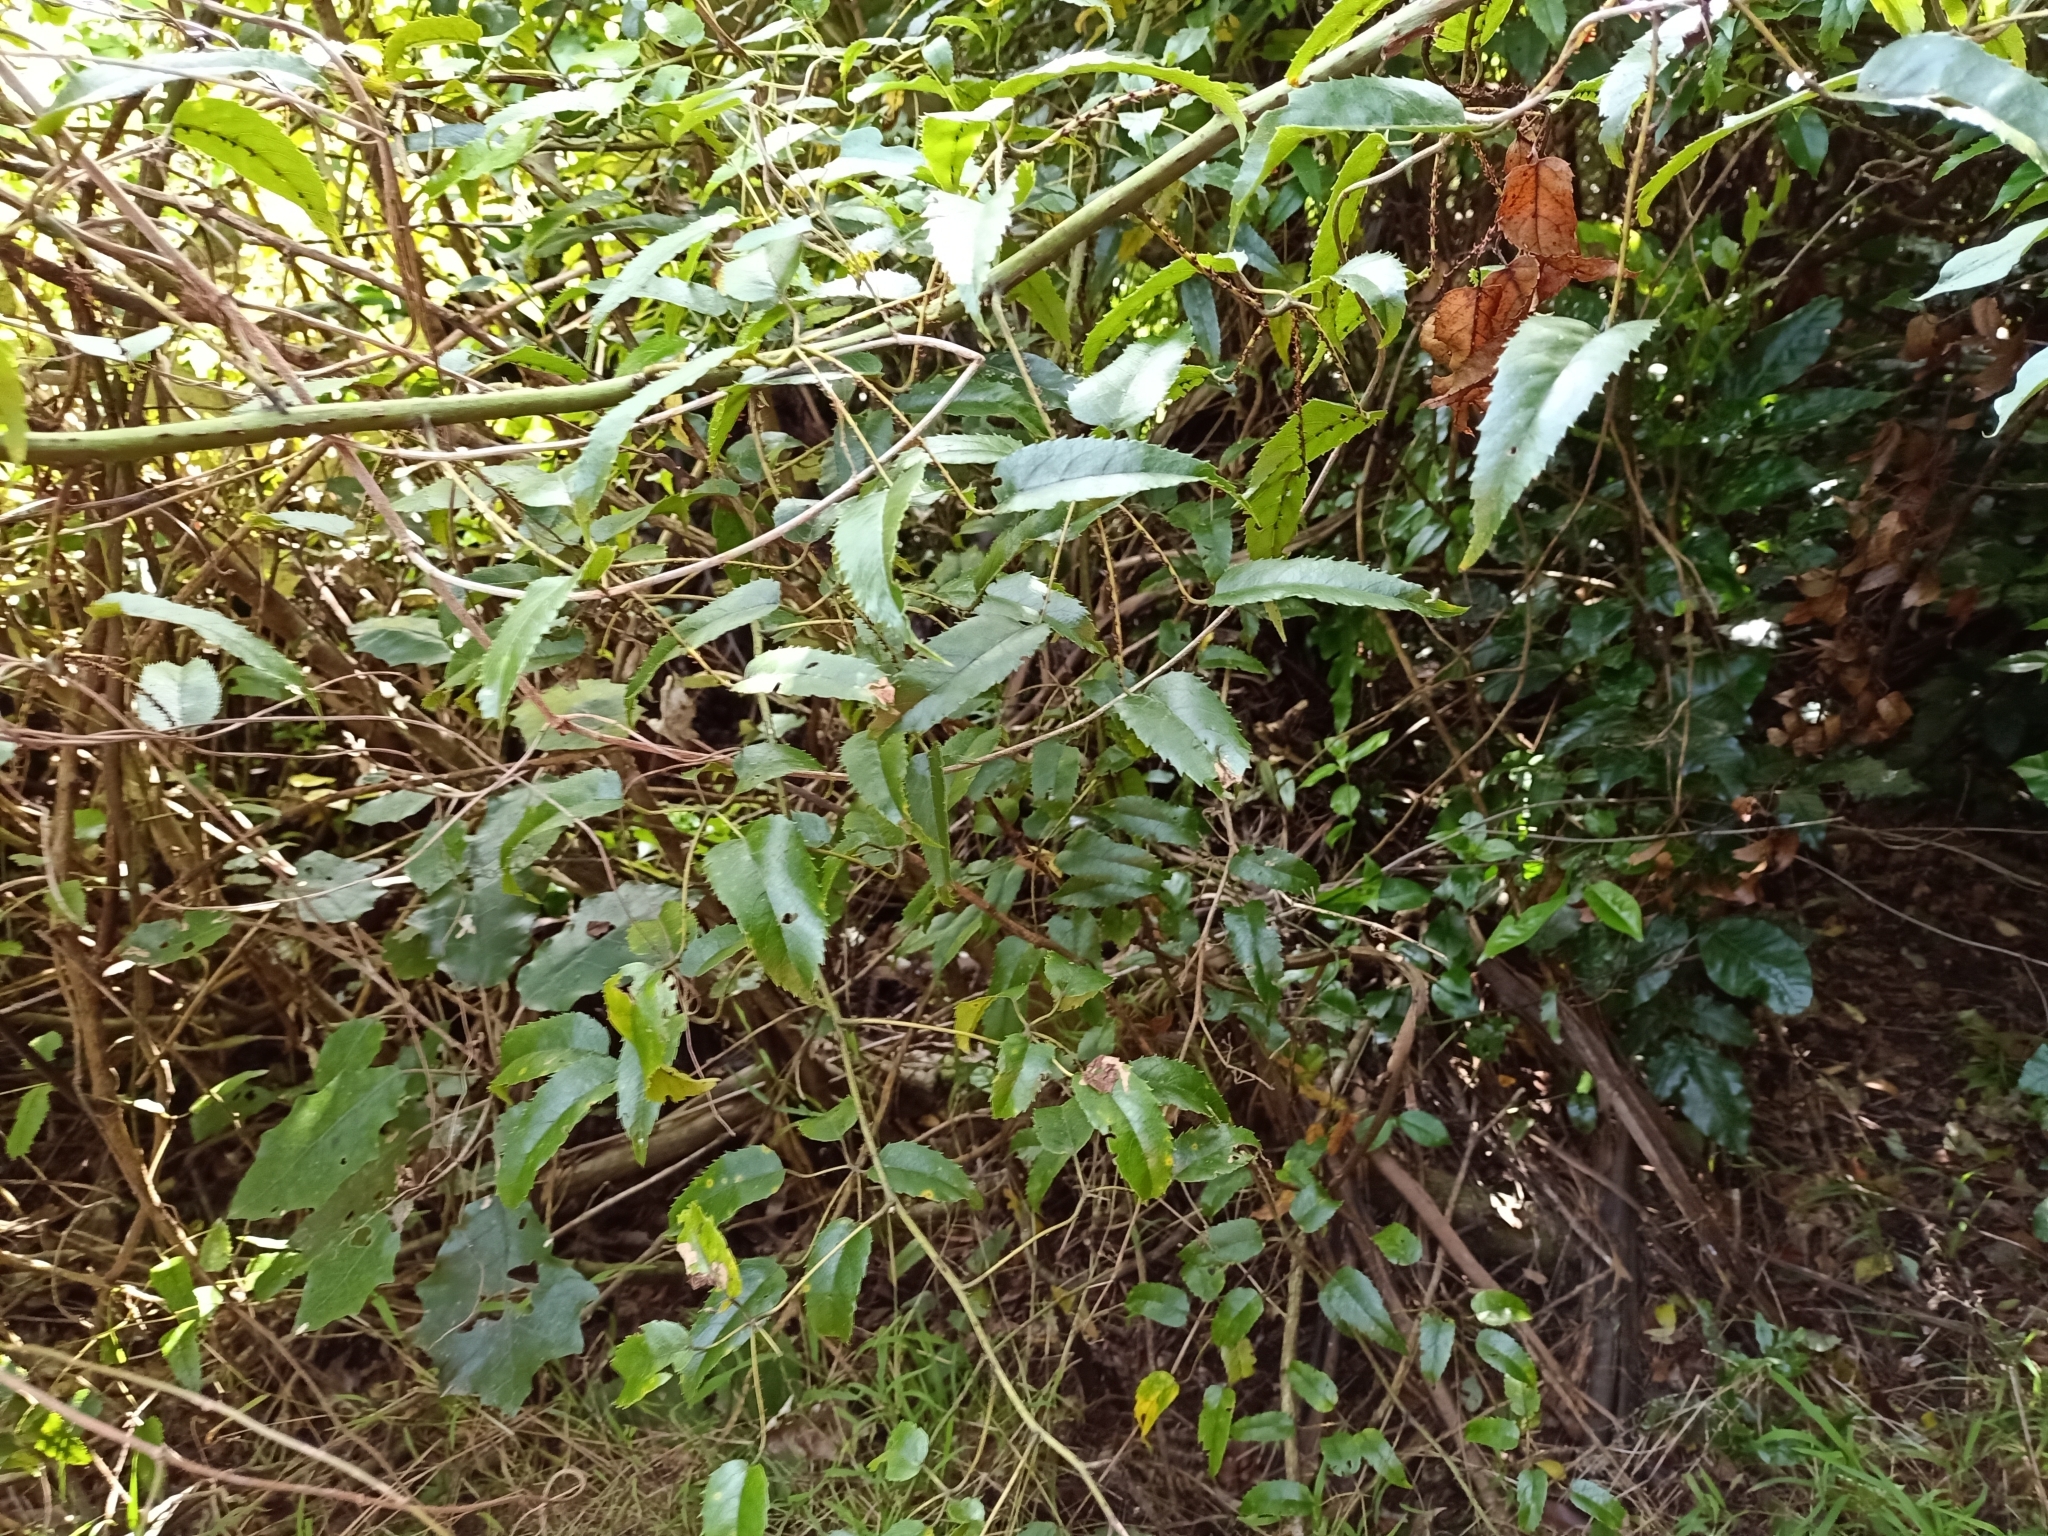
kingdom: Plantae
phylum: Tracheophyta
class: Magnoliopsida
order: Rosales
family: Rosaceae
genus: Rubus
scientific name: Rubus cissoides
